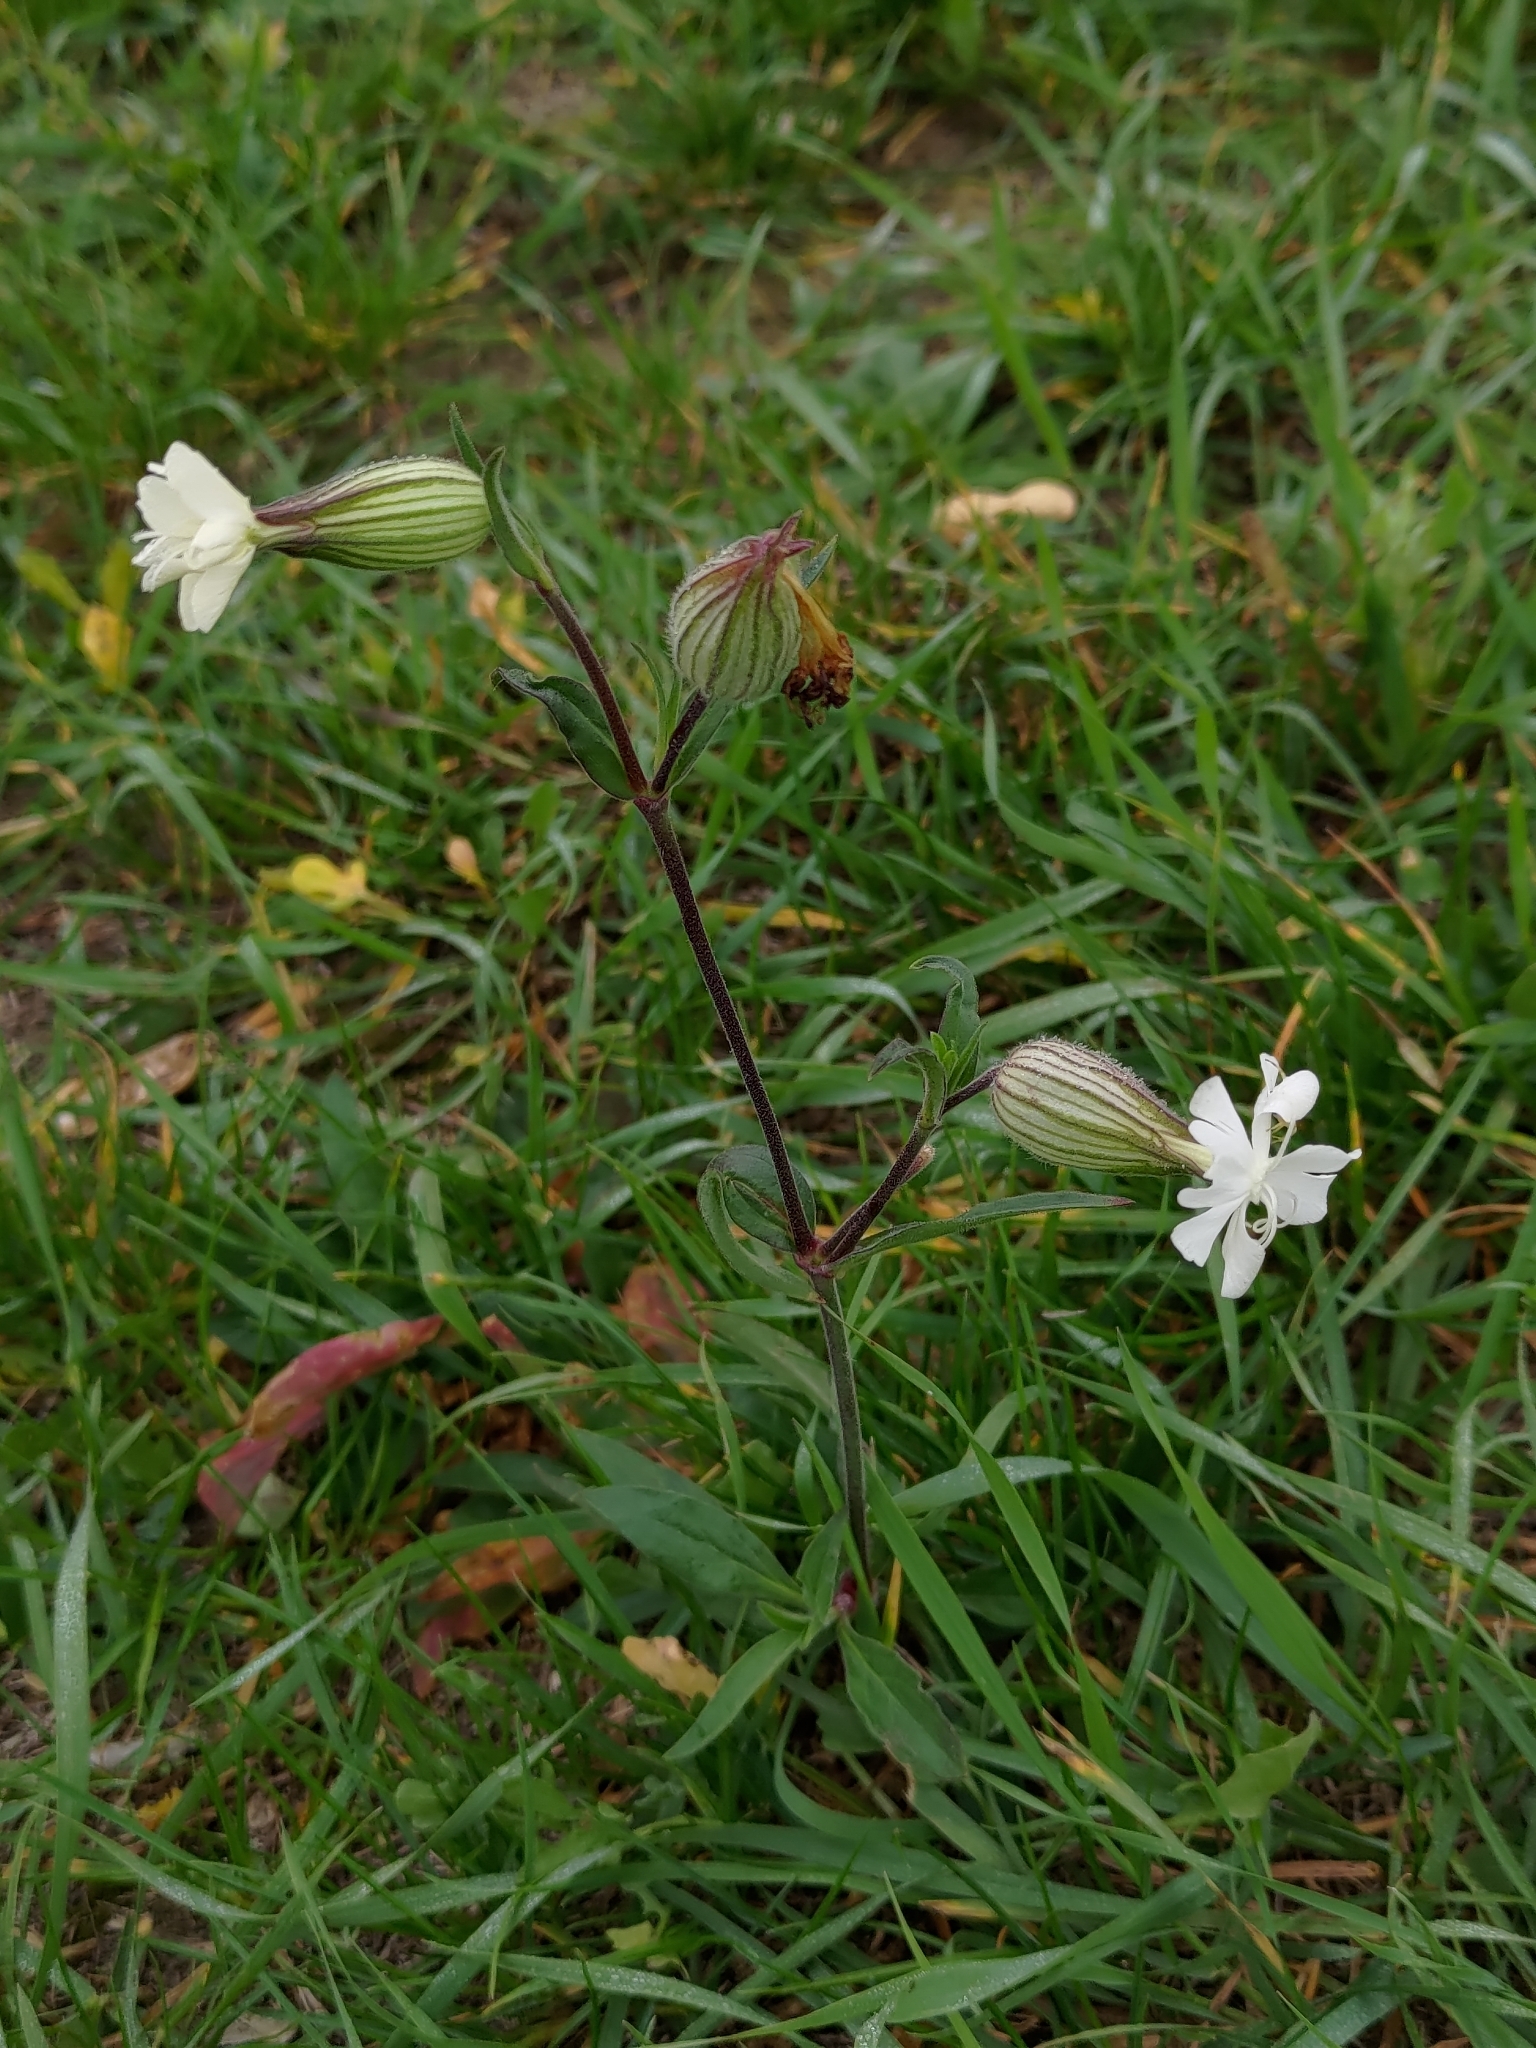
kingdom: Plantae
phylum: Tracheophyta
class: Magnoliopsida
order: Caryophyllales
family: Caryophyllaceae
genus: Silene
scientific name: Silene latifolia
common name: White campion
